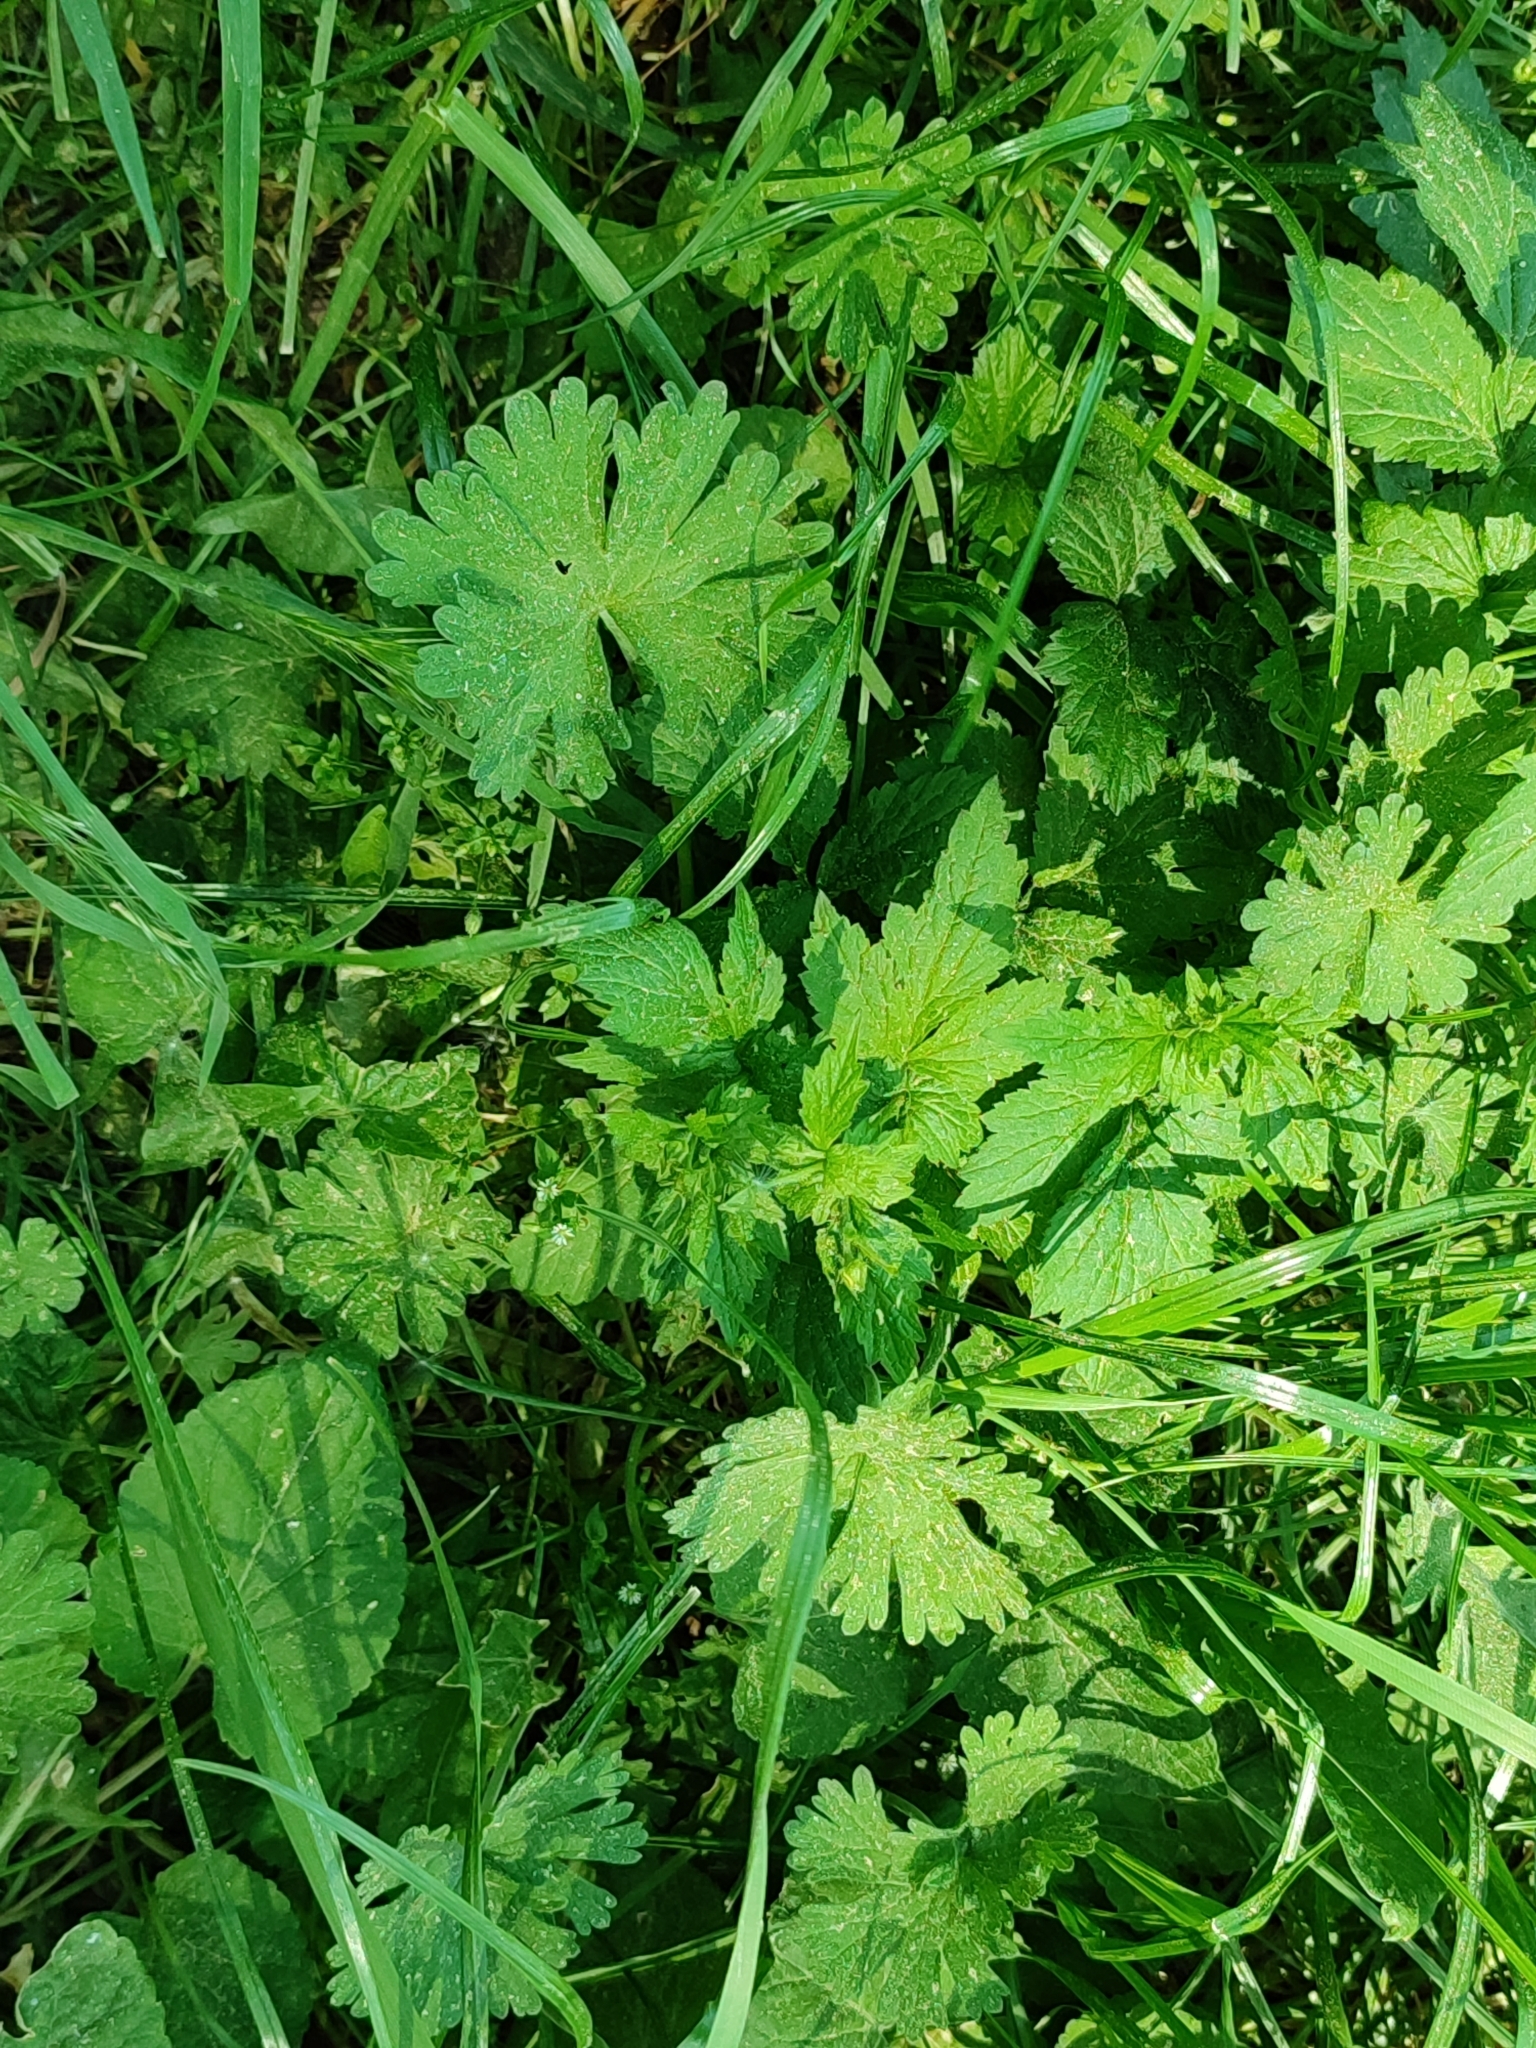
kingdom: Plantae
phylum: Tracheophyta
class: Magnoliopsida
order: Geraniales
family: Geraniaceae
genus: Geranium
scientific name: Geranium pusillum
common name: Small geranium
